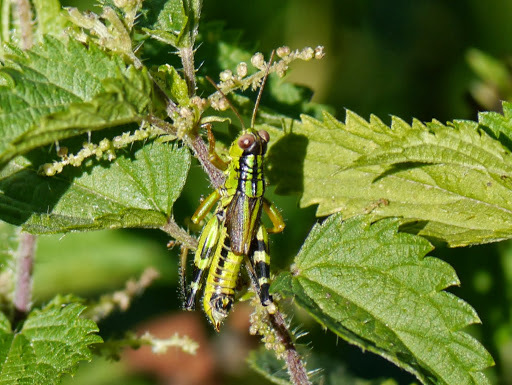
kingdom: Animalia
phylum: Arthropoda
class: Insecta
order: Orthoptera
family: Acrididae
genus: Nadigella
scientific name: Nadigella formosanta
